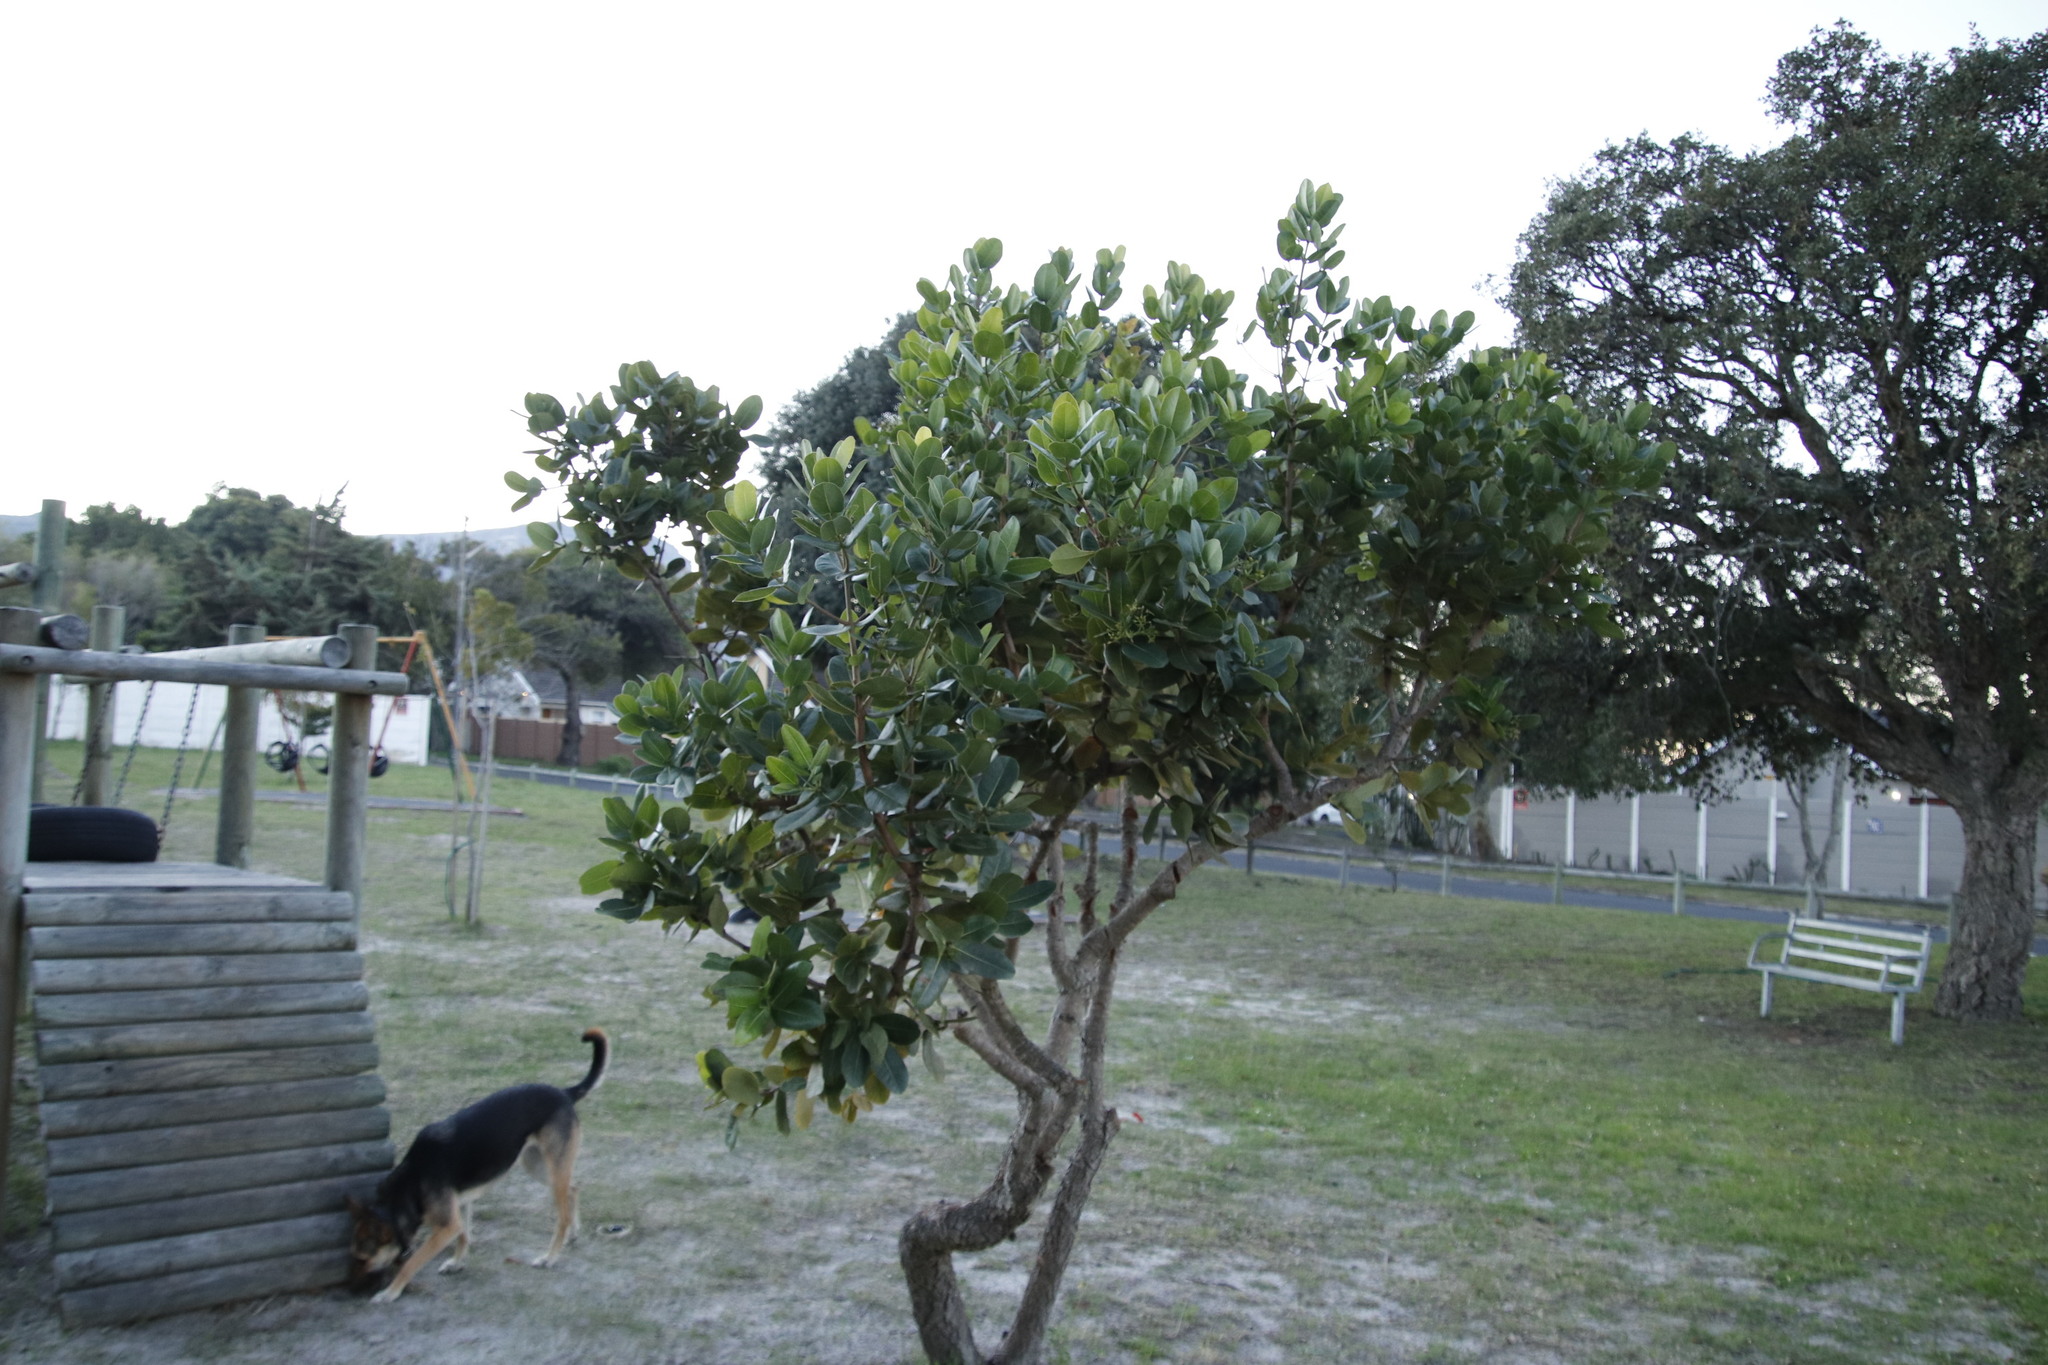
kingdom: Plantae
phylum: Tracheophyta
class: Magnoliopsida
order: Myrtales
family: Myrtaceae
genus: Syzygium
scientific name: Syzygium cordatum
